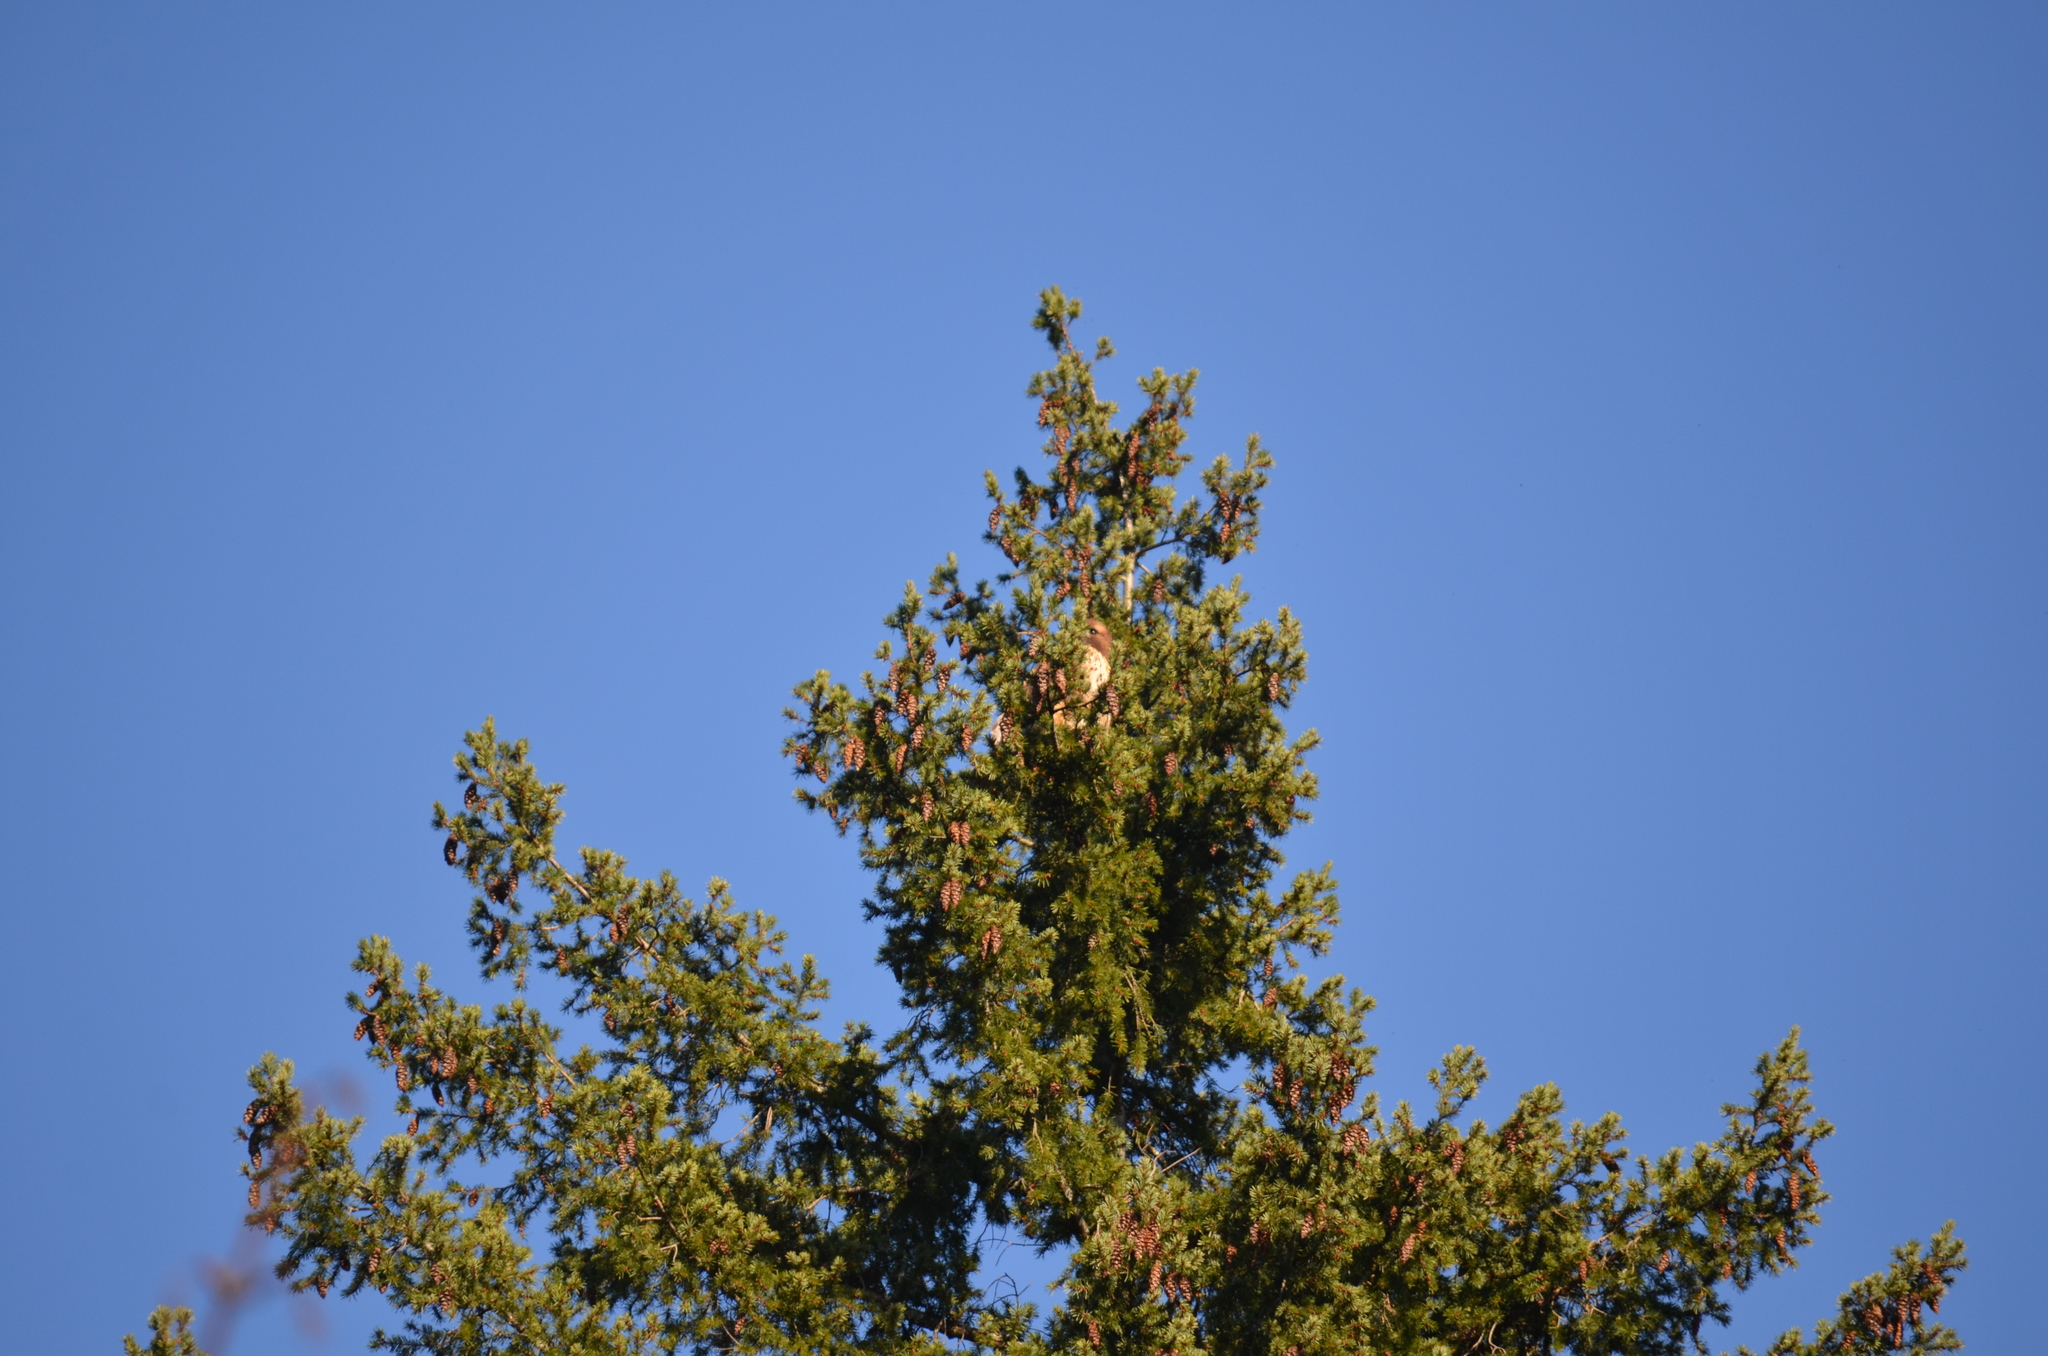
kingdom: Animalia
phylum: Chordata
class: Aves
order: Accipitriformes
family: Accipitridae
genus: Buteo
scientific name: Buteo jamaicensis
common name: Red-tailed hawk
